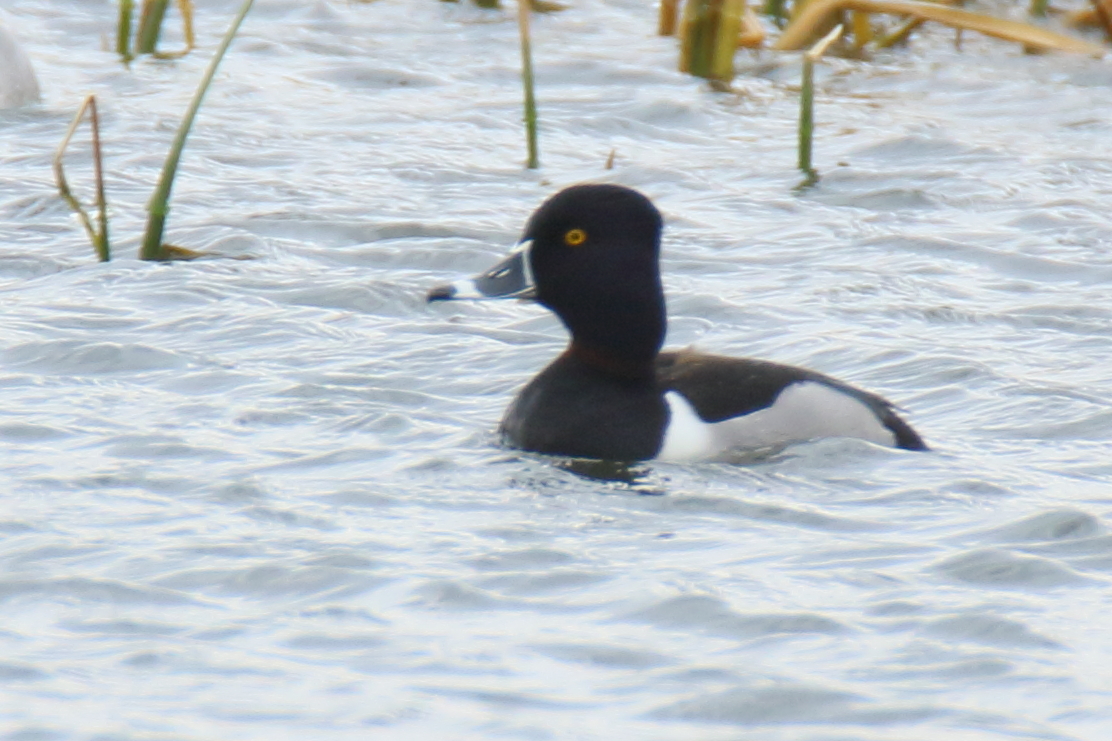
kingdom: Animalia
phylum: Chordata
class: Aves
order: Anseriformes
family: Anatidae
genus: Aythya
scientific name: Aythya collaris
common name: Ring-necked duck
